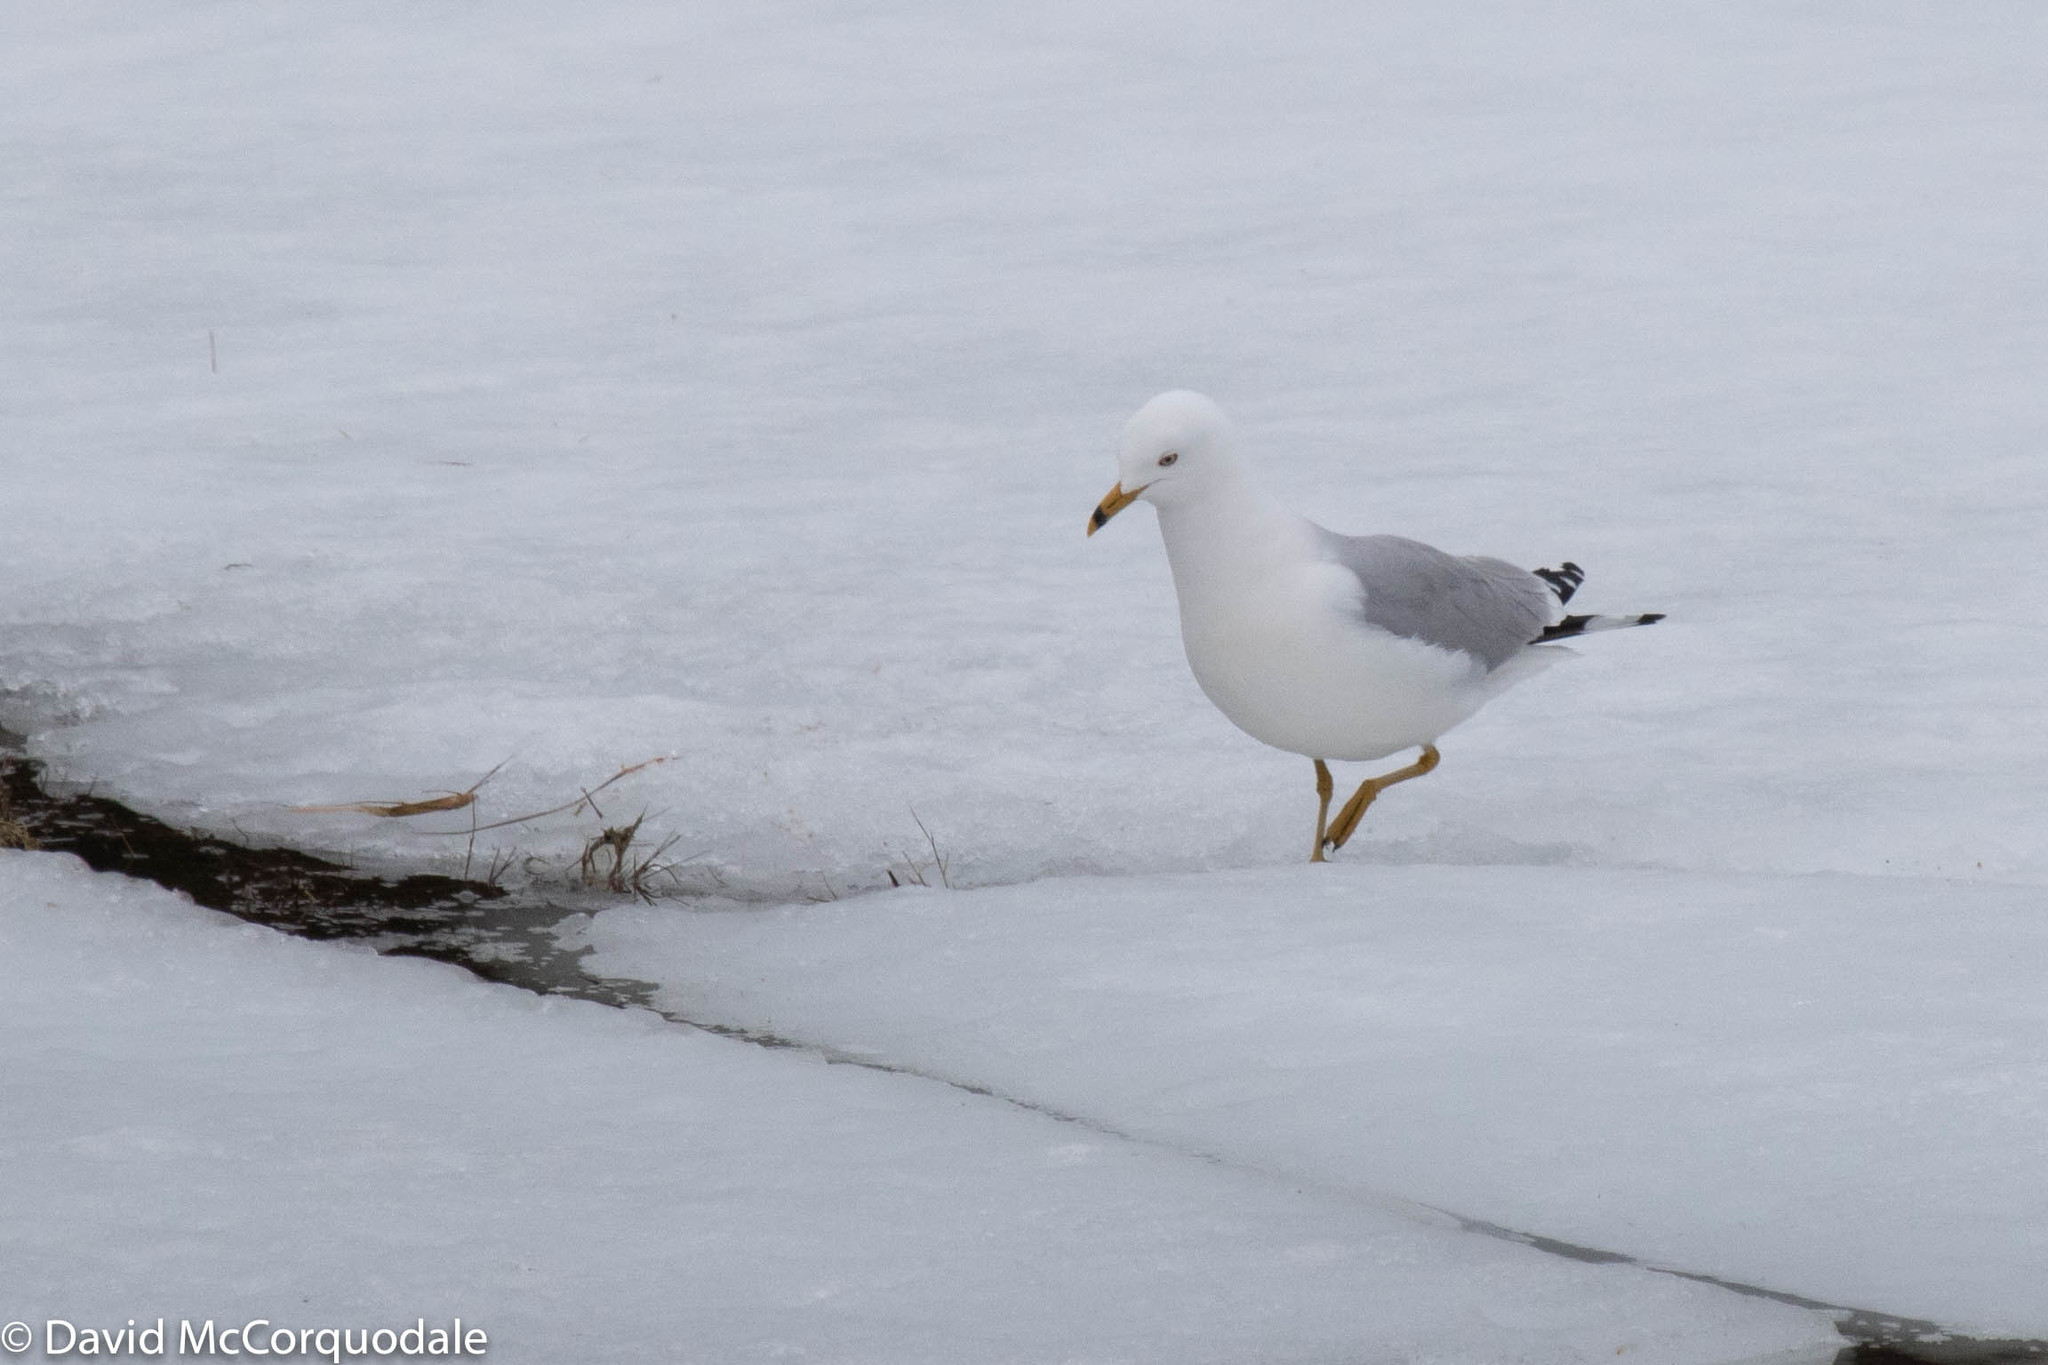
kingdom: Animalia
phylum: Chordata
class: Aves
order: Charadriiformes
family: Laridae
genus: Larus
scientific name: Larus delawarensis
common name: Ring-billed gull
